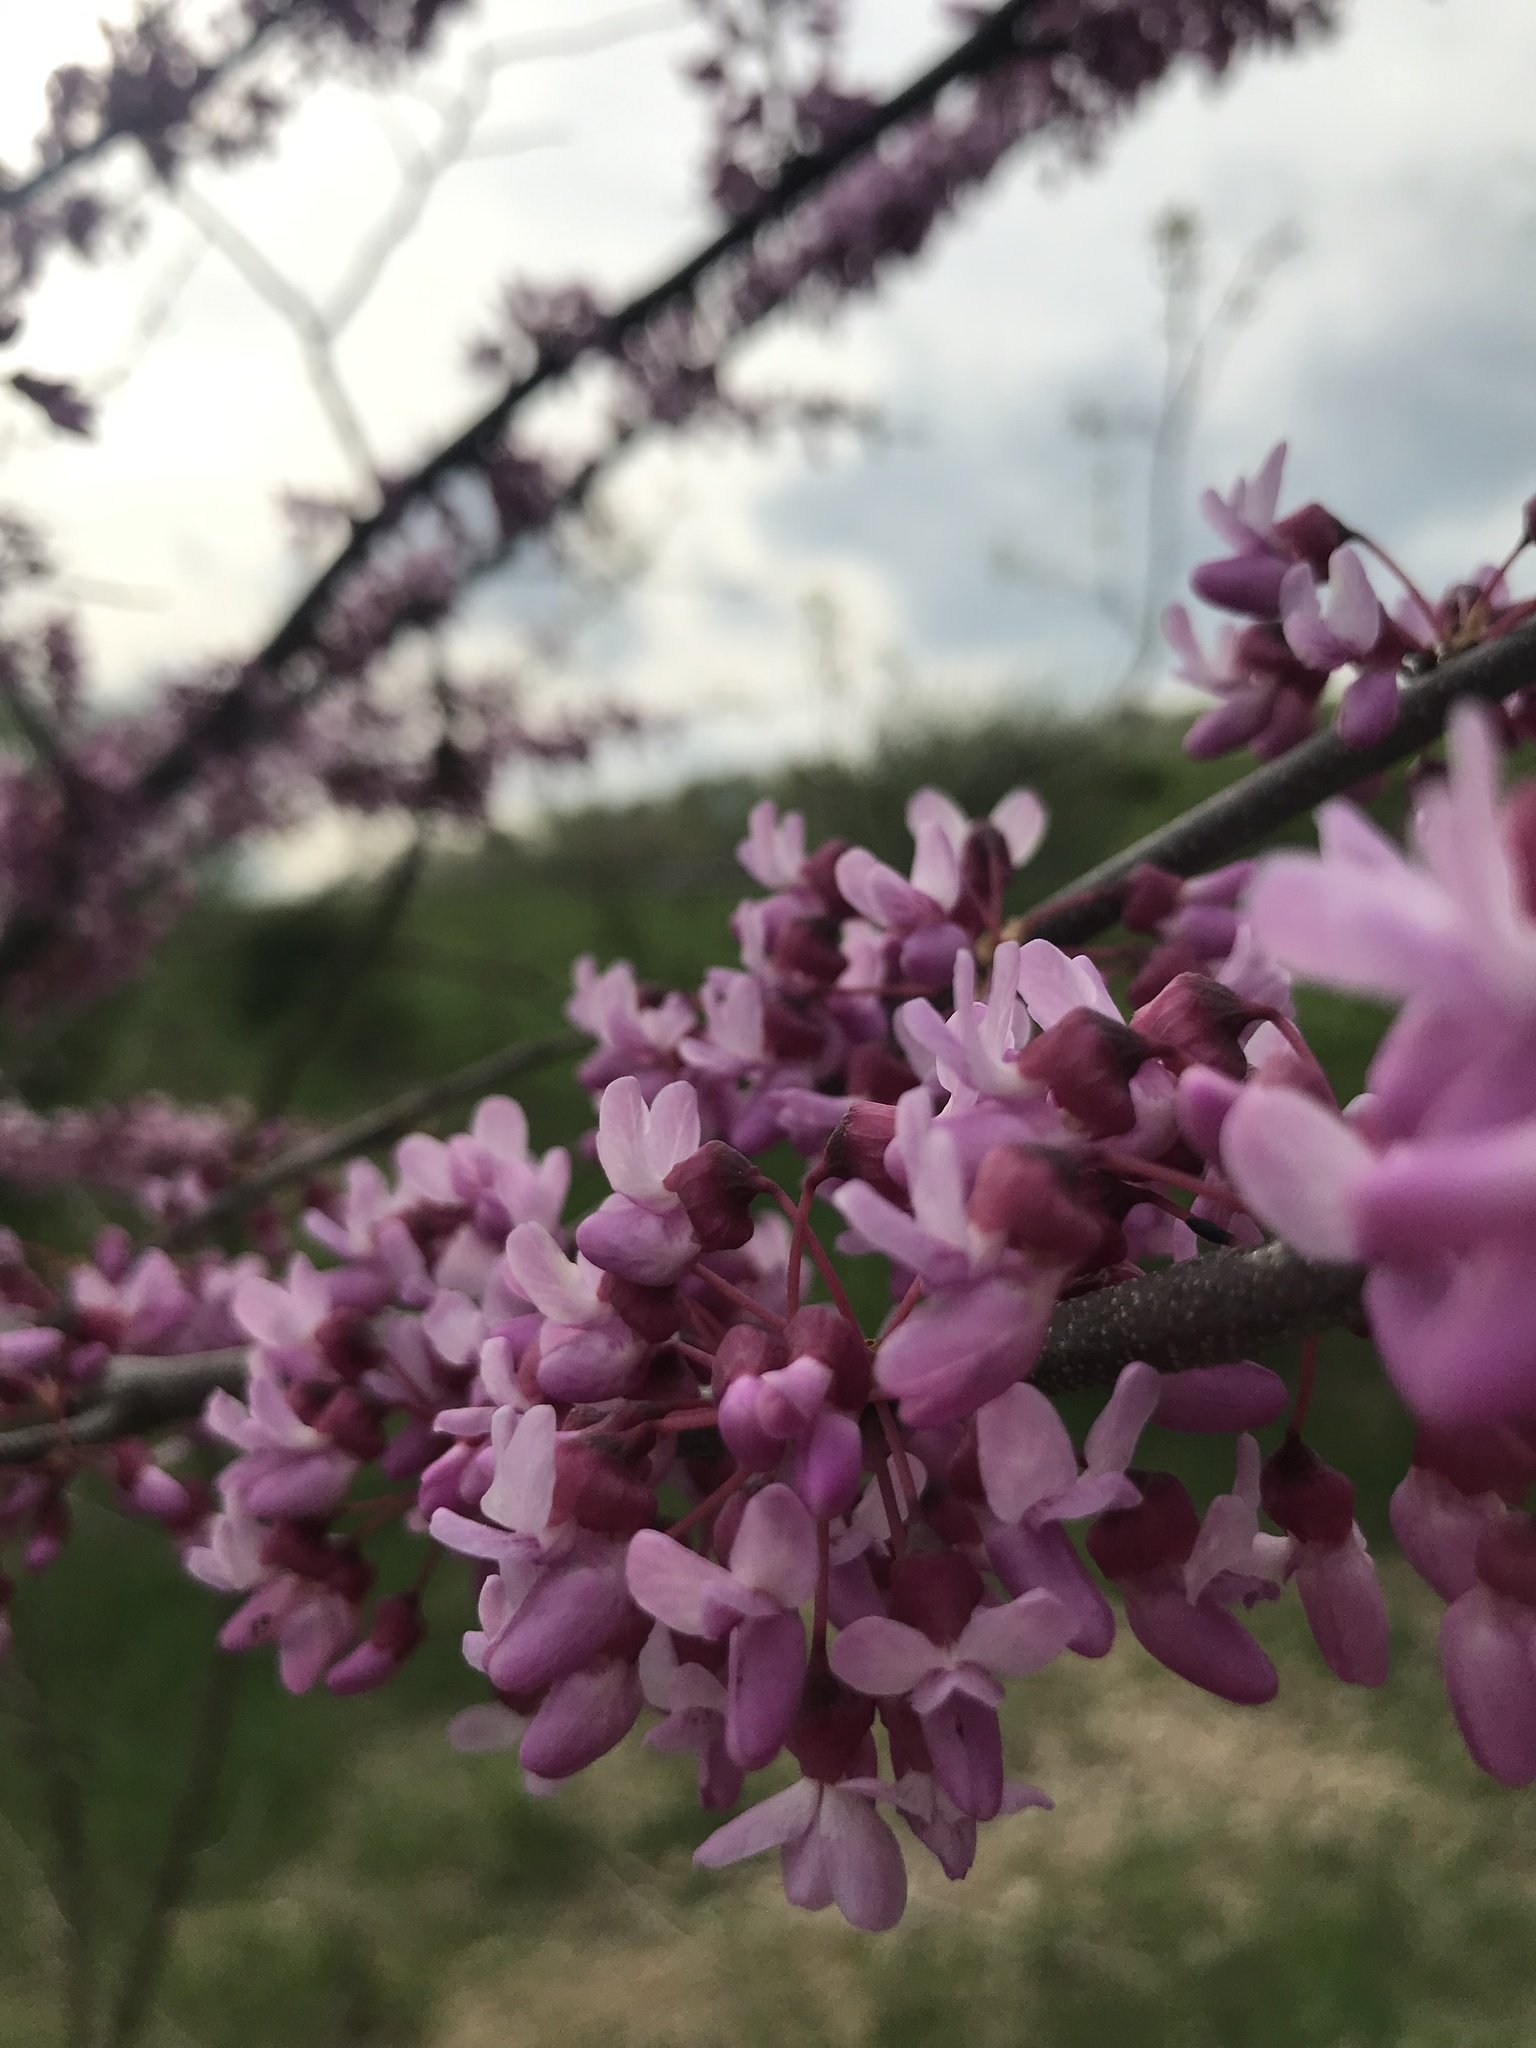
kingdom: Plantae
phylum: Tracheophyta
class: Magnoliopsida
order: Fabales
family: Fabaceae
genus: Cercis
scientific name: Cercis canadensis
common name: Eastern redbud
